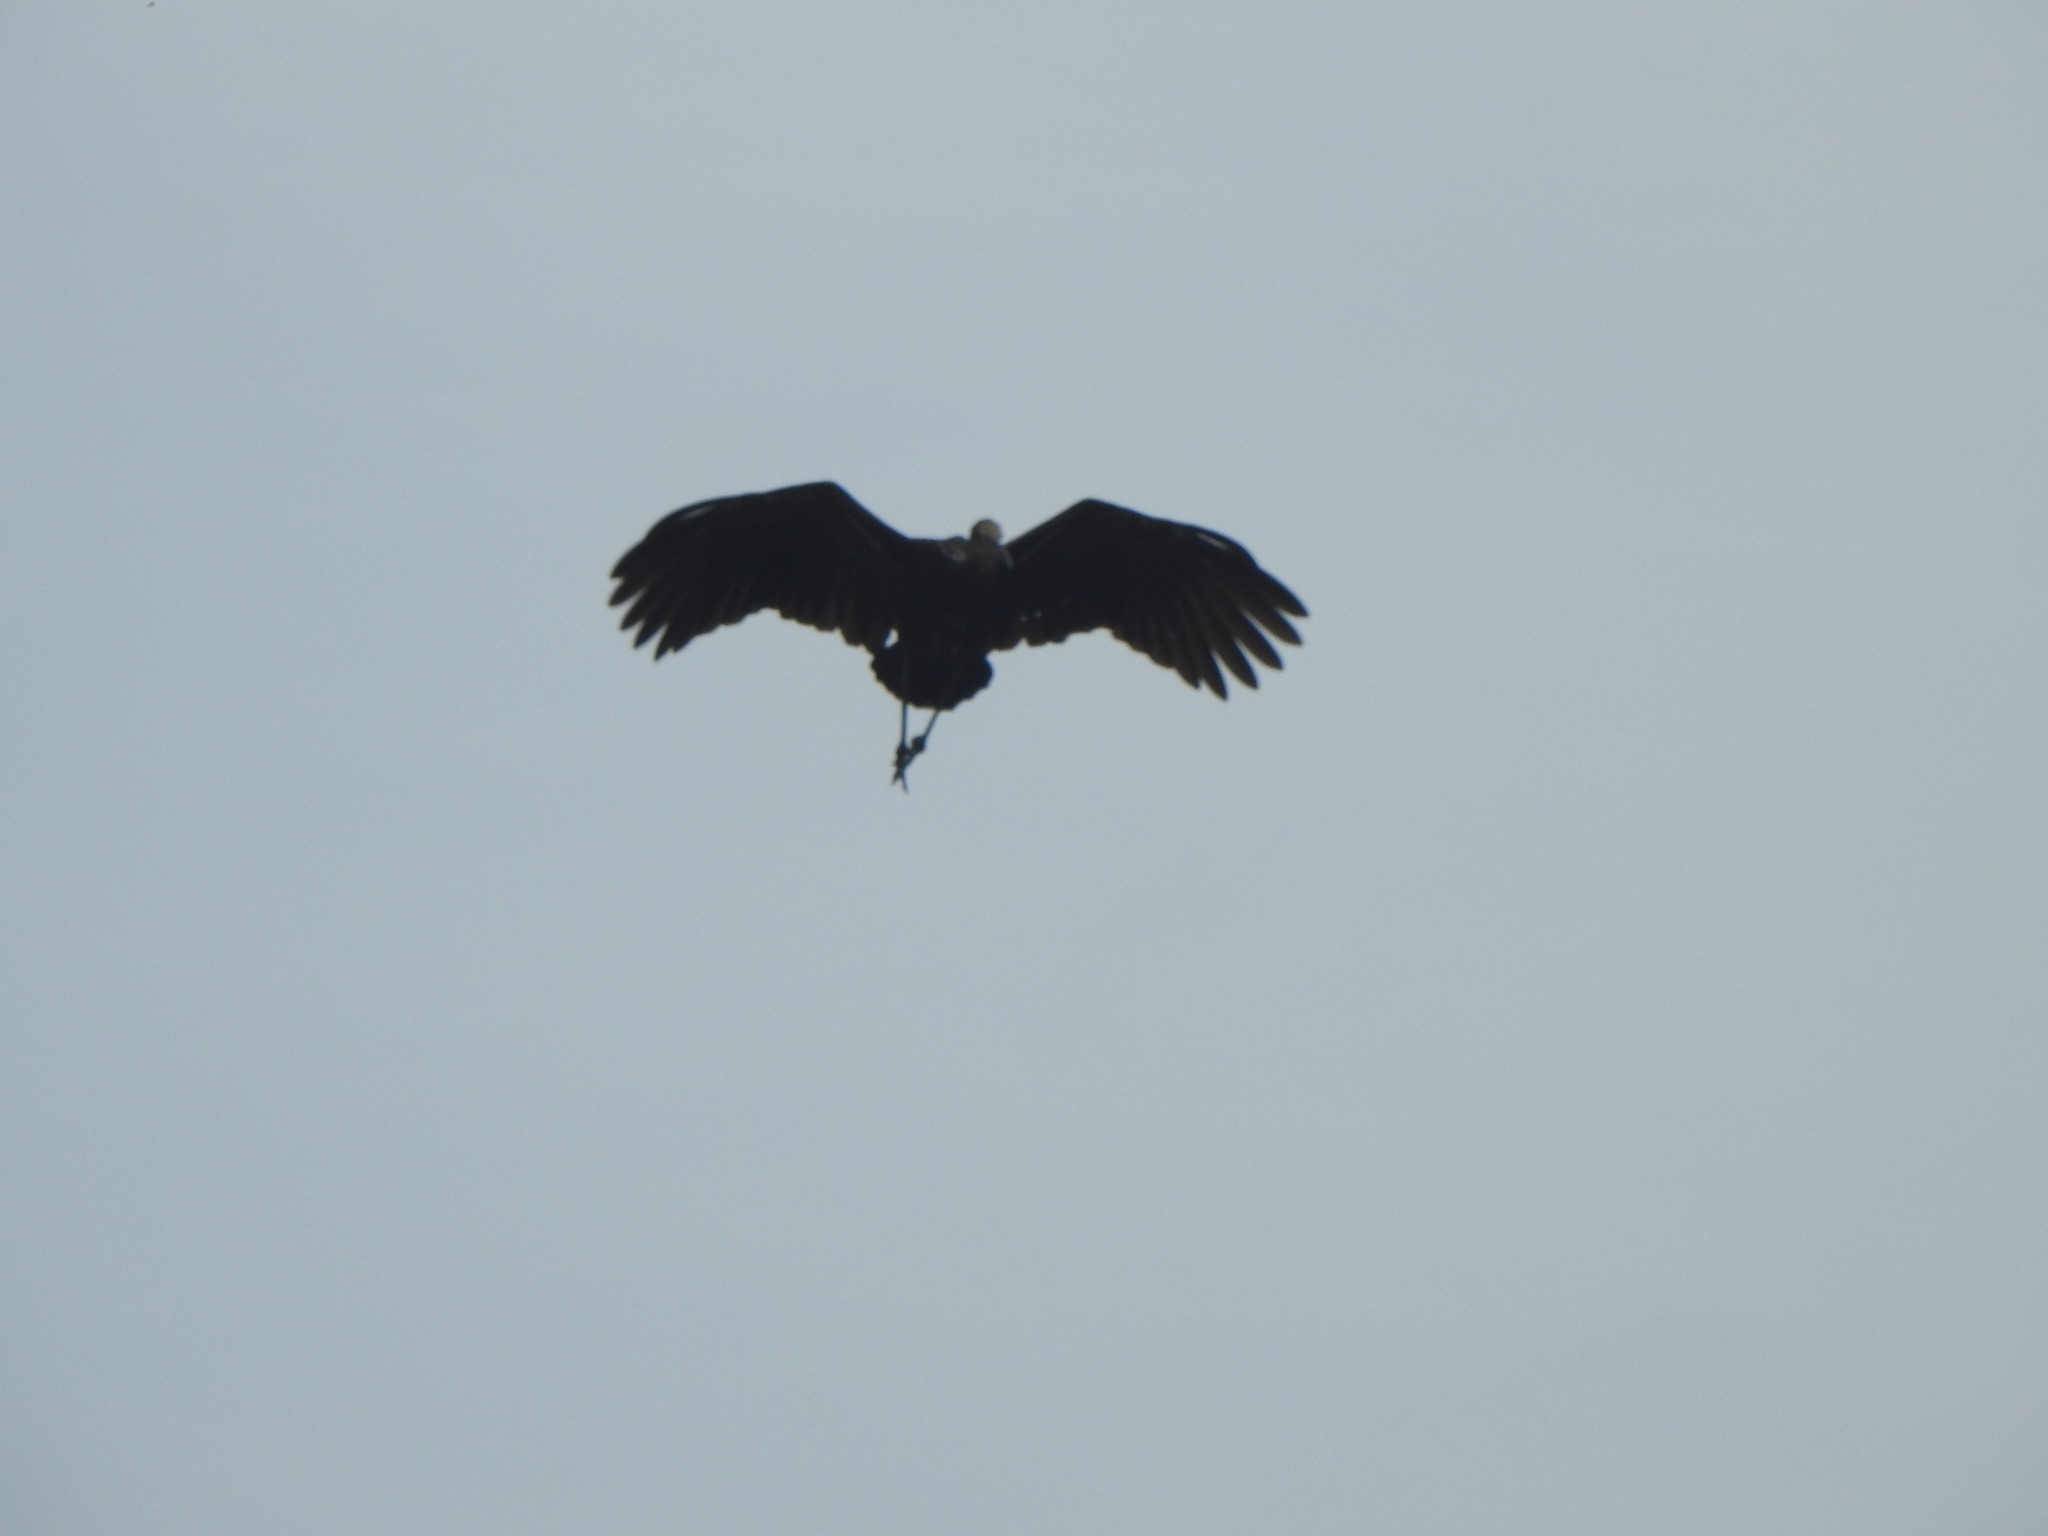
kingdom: Animalia
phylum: Chordata
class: Aves
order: Gruiformes
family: Aramidae
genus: Aramus
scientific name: Aramus guarauna
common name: Limpkin
